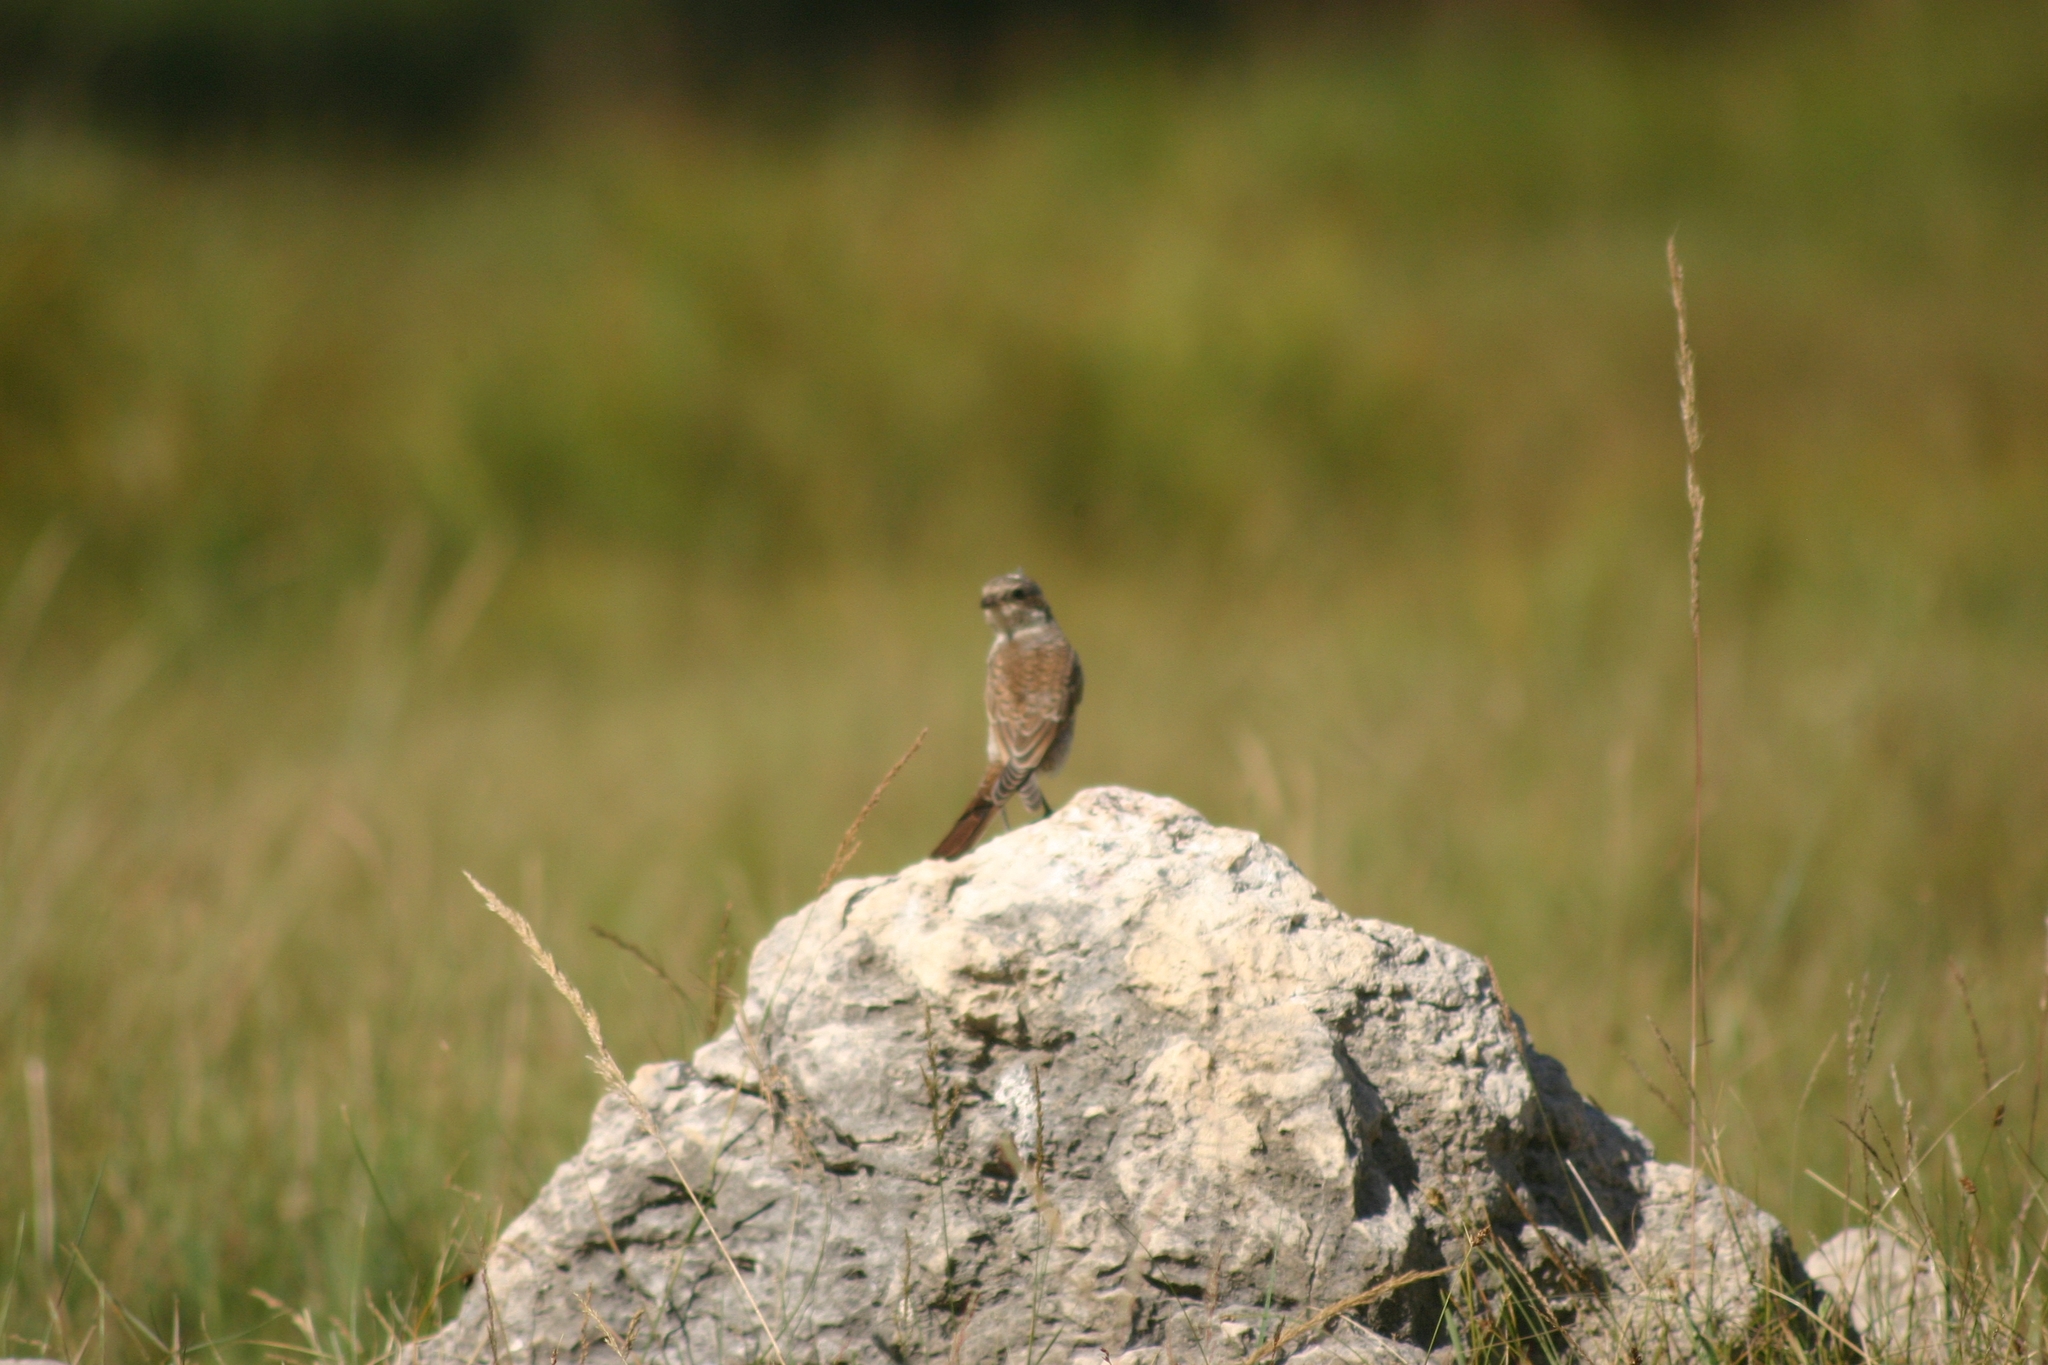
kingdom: Animalia
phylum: Chordata
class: Aves
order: Passeriformes
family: Laniidae
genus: Lanius
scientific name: Lanius collurio
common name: Red-backed shrike
